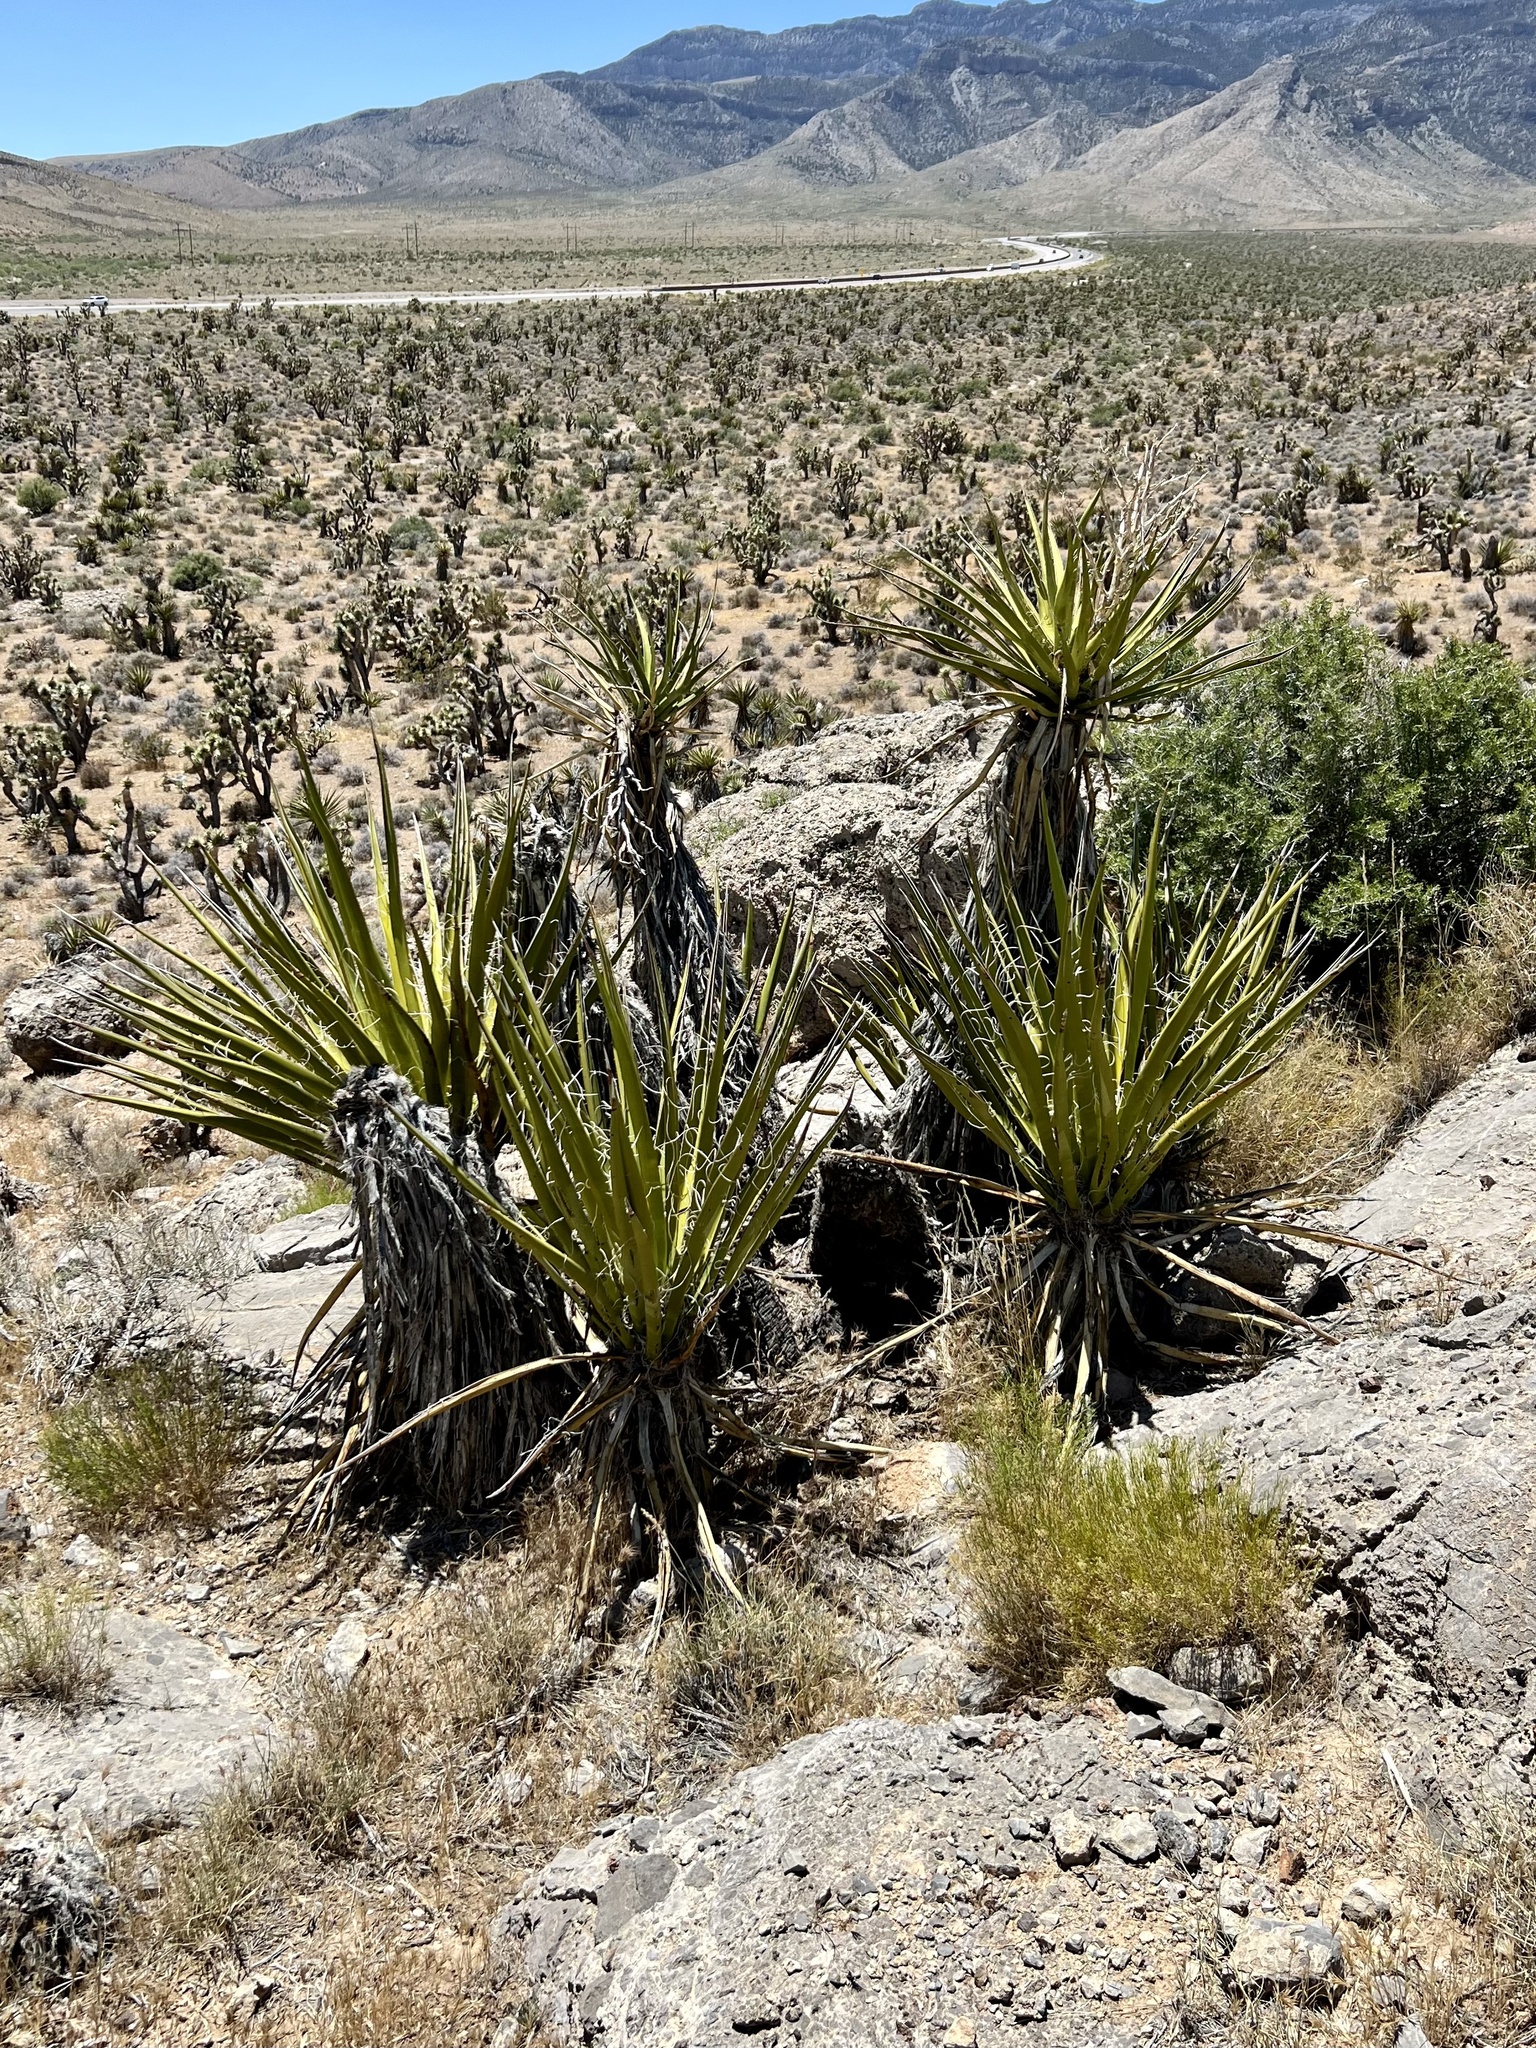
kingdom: Plantae
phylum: Tracheophyta
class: Liliopsida
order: Asparagales
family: Asparagaceae
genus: Yucca
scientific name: Yucca schidigera
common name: Mojave yucca
